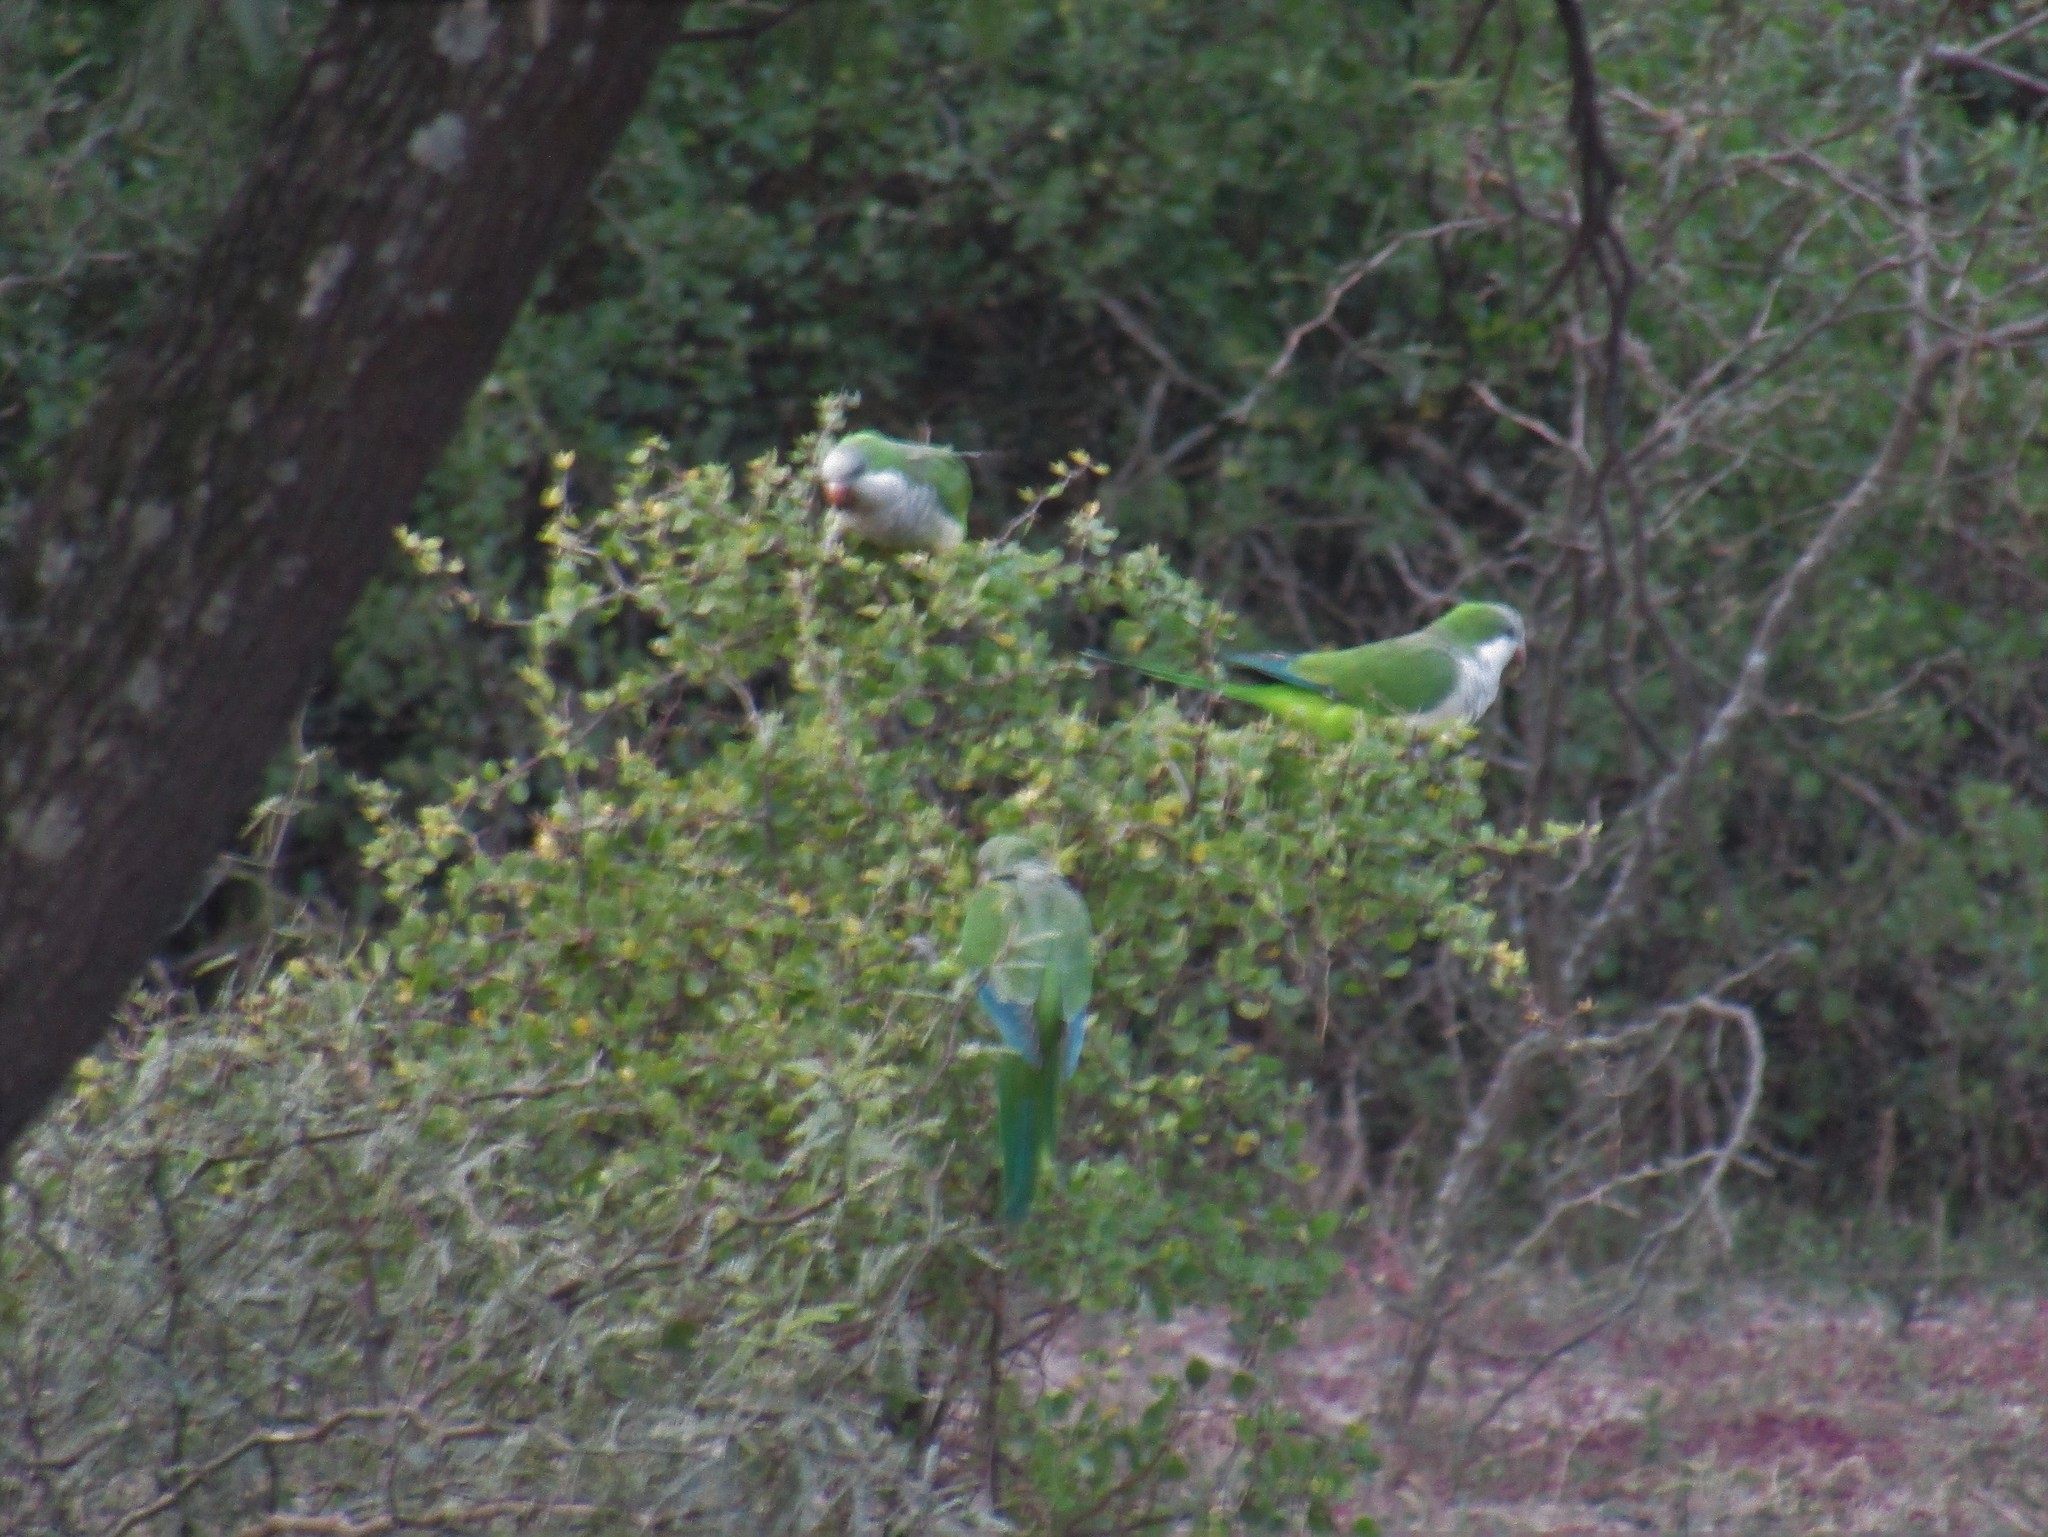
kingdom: Animalia
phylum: Chordata
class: Aves
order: Psittaciformes
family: Psittacidae
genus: Myiopsitta
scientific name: Myiopsitta monachus
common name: Monk parakeet
